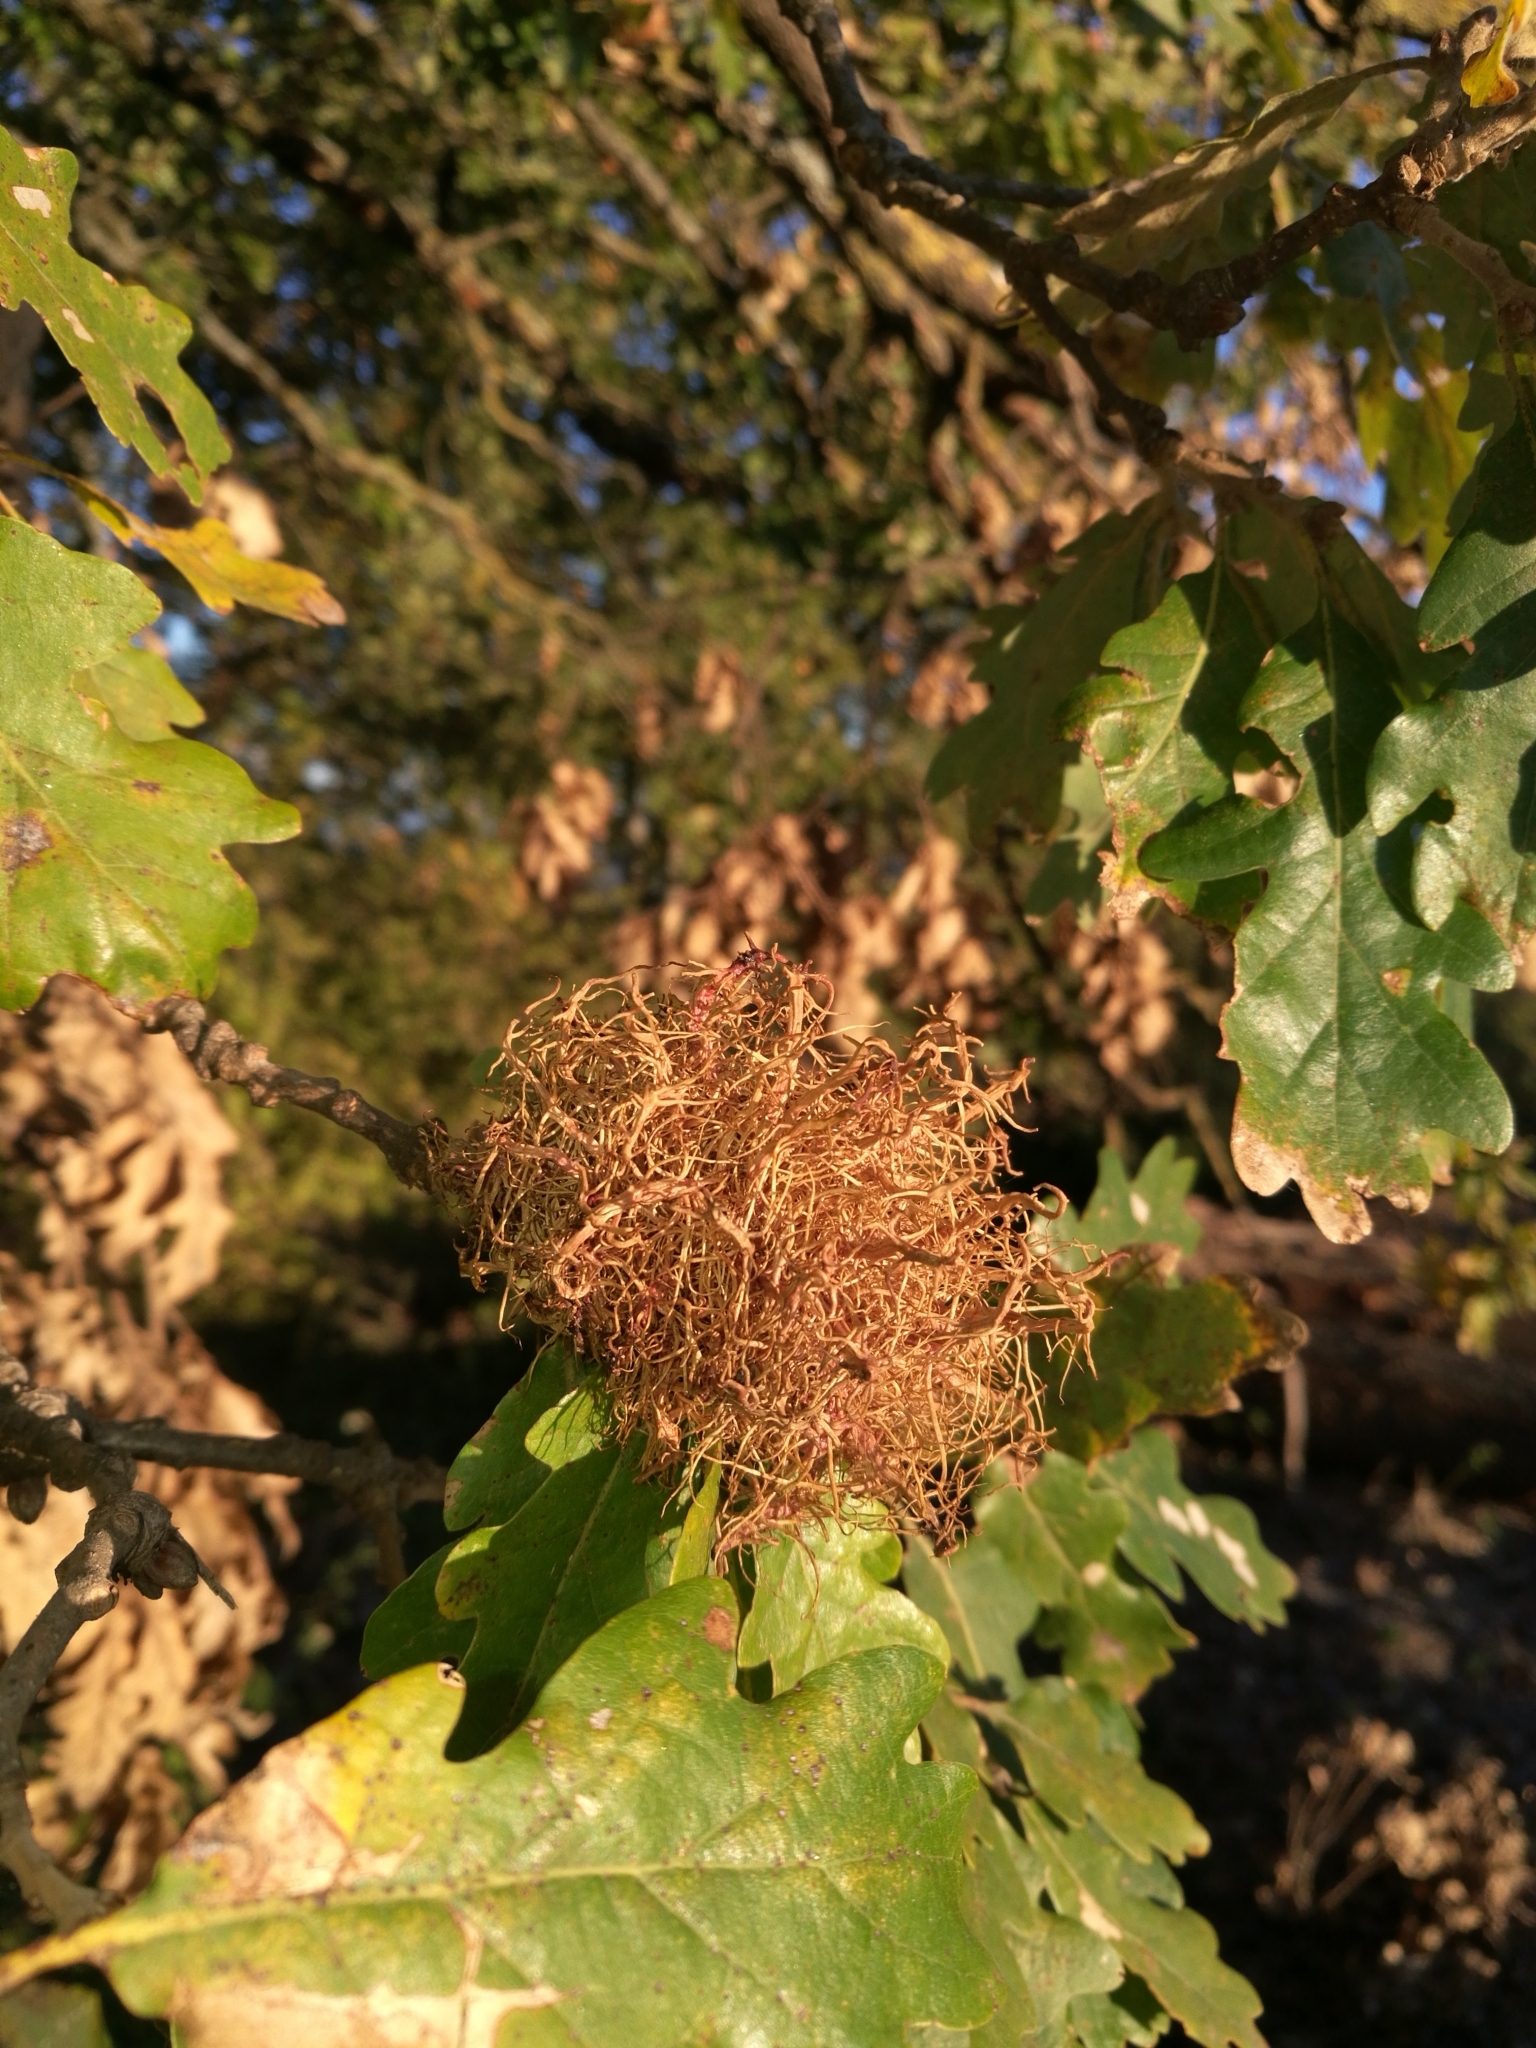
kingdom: Animalia
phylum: Arthropoda
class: Insecta
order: Hymenoptera
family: Cynipidae
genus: Andricus
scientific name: Andricus caputmedusae
